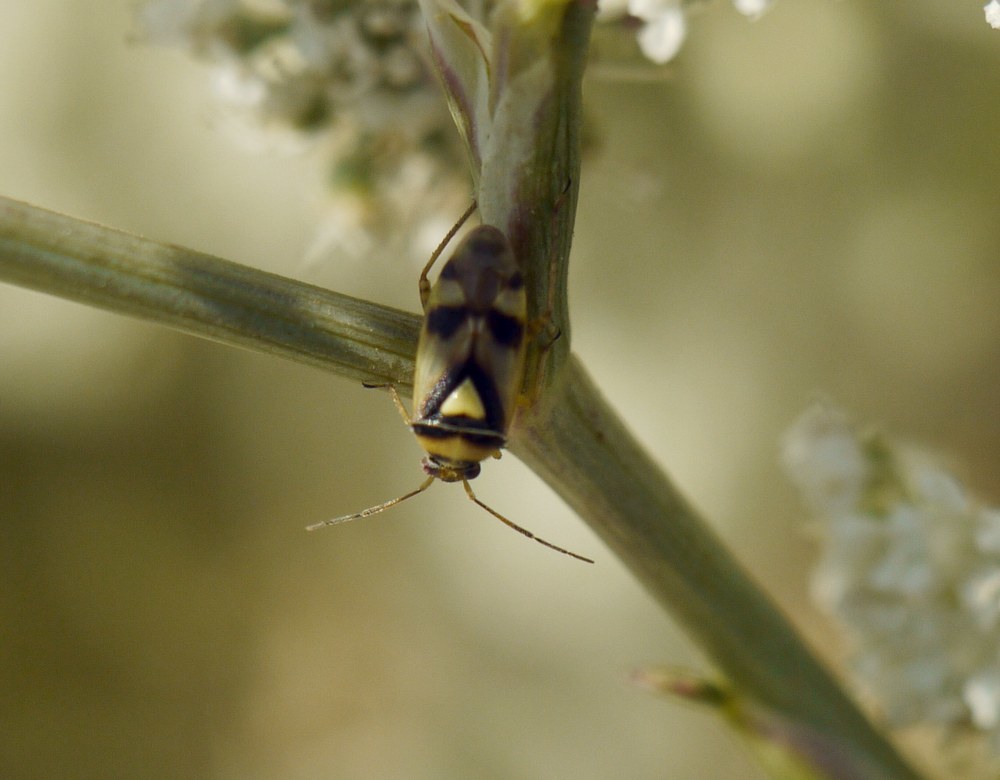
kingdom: Animalia
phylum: Arthropoda
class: Insecta
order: Hemiptera
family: Miridae
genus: Orthops
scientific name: Orthops kalmii
